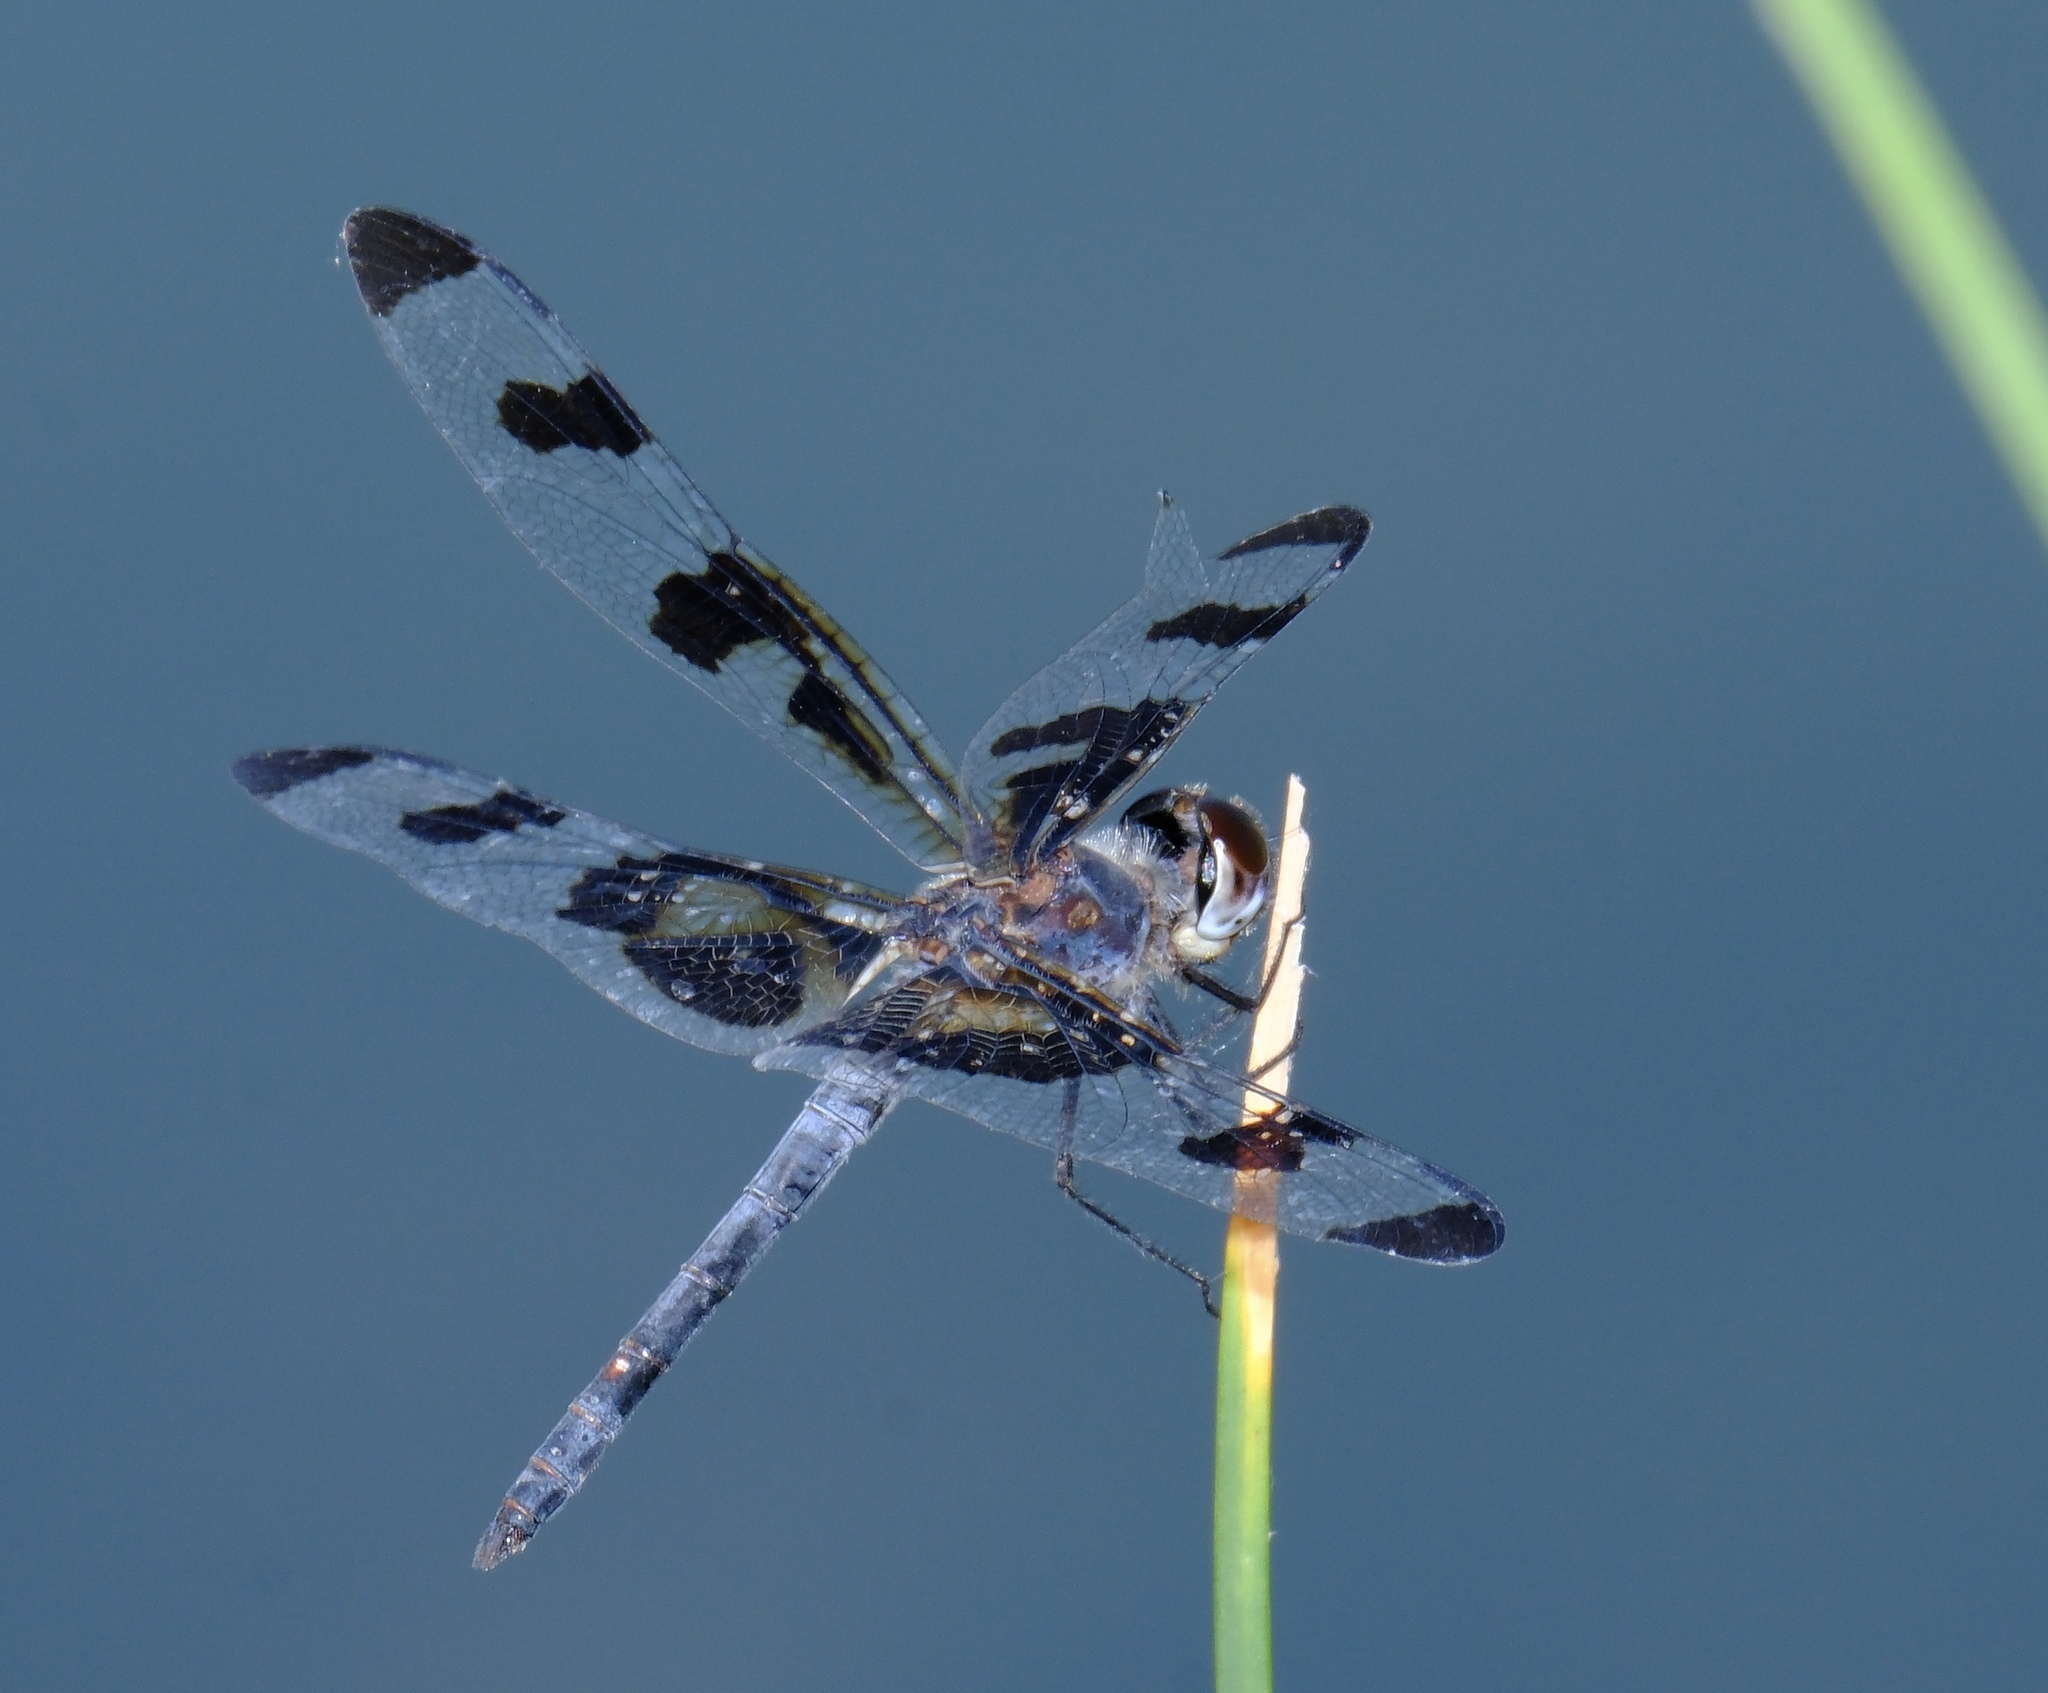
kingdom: Animalia
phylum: Arthropoda
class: Insecta
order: Odonata
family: Libellulidae
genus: Celithemis
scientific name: Celithemis fasciata
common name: Banded pennant
